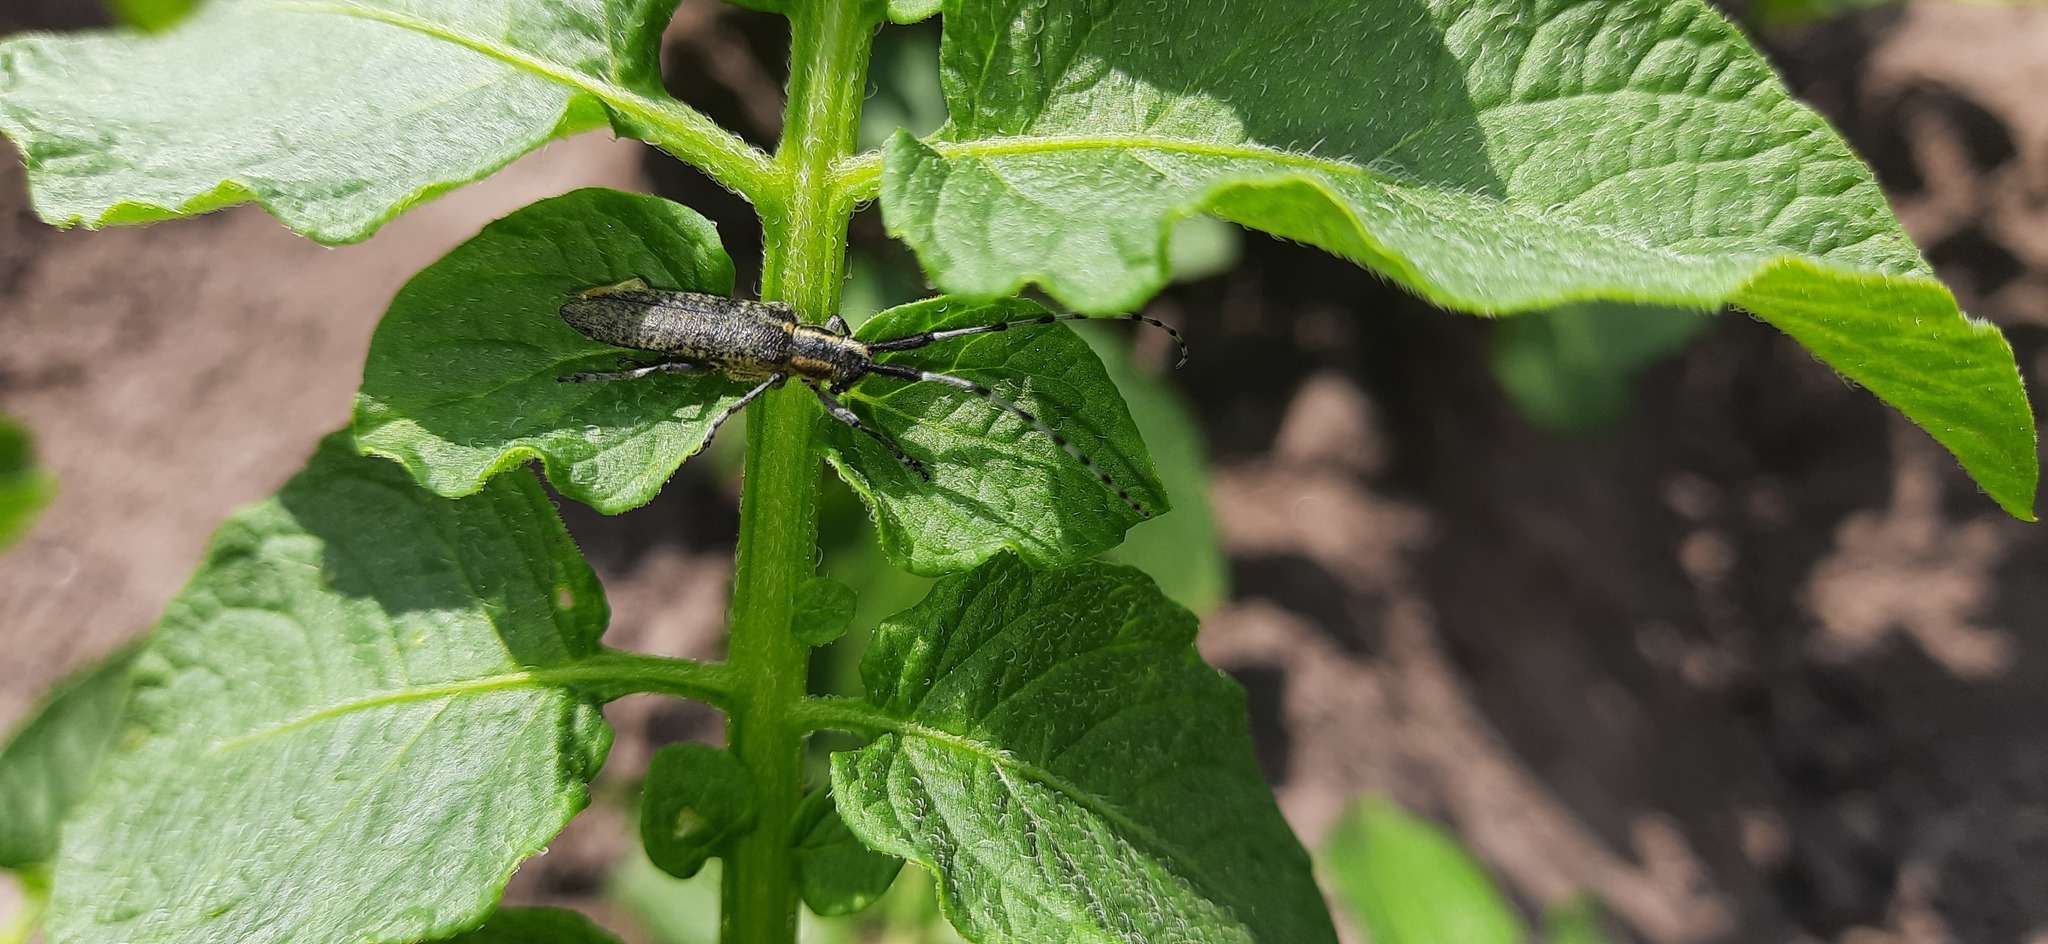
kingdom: Animalia
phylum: Arthropoda
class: Insecta
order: Coleoptera
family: Cerambycidae
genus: Agapanthia
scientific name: Agapanthia villosoviridescens
